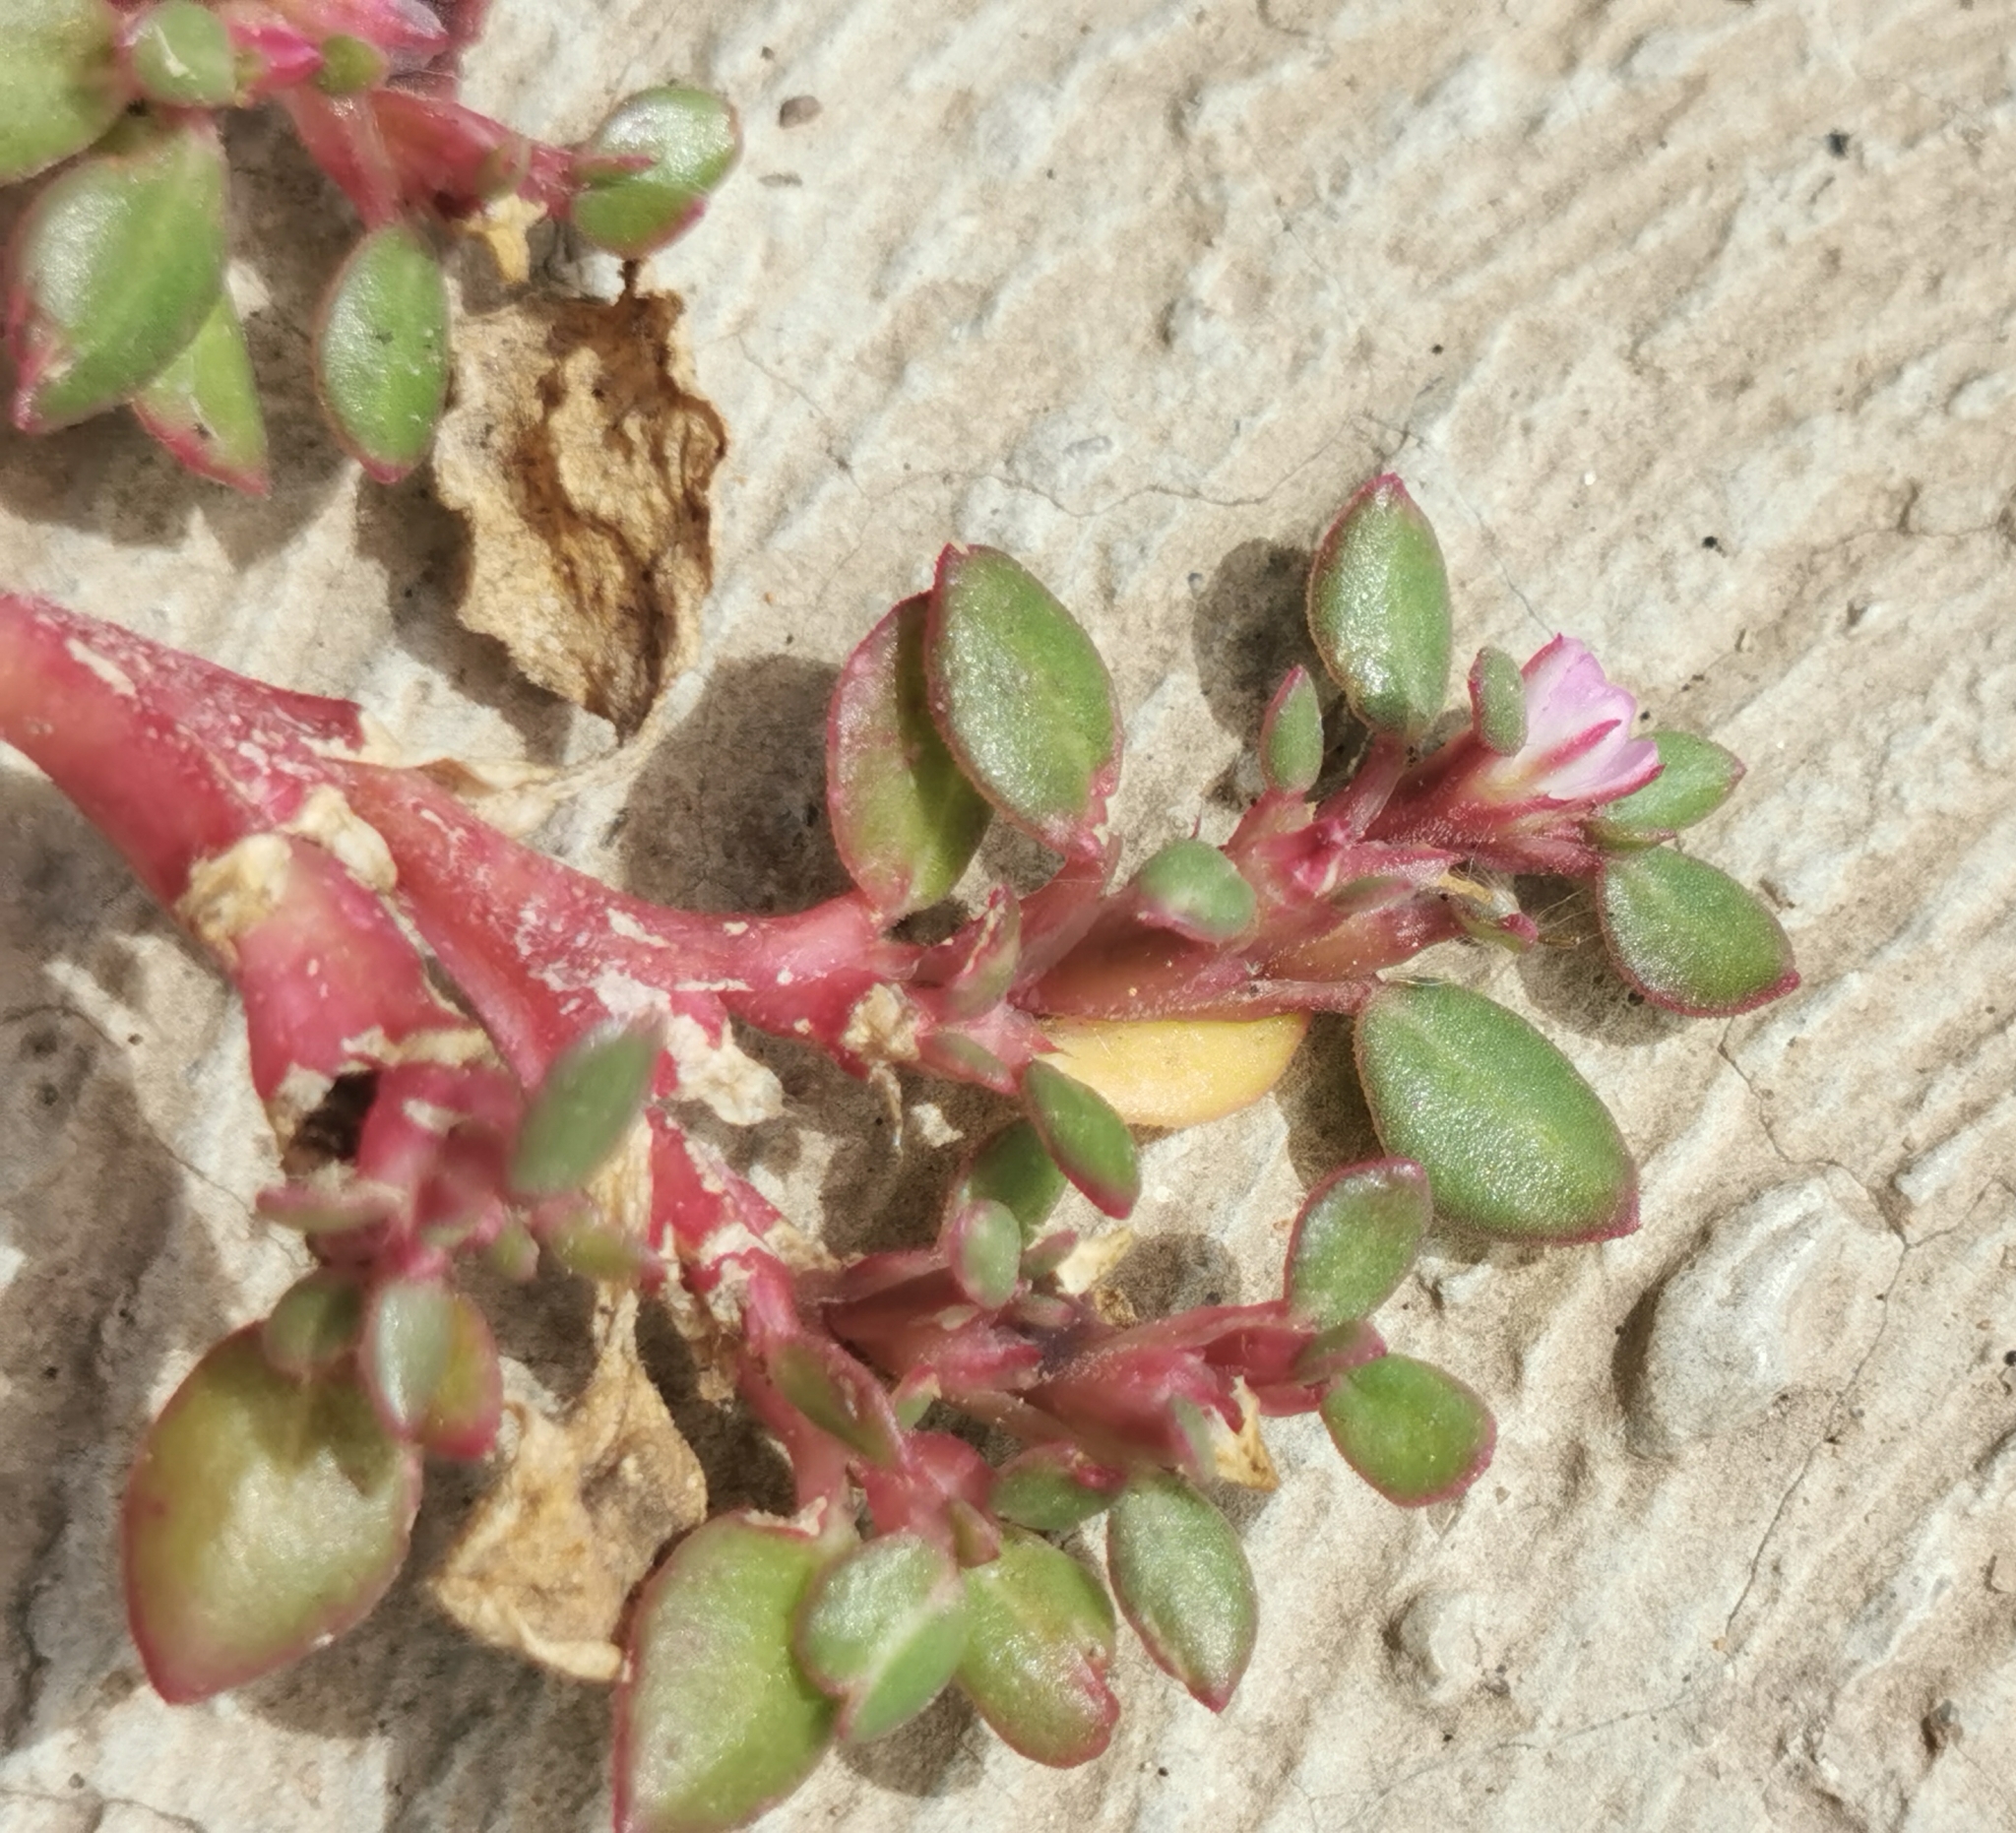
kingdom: Plantae
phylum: Tracheophyta
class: Magnoliopsida
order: Caryophyllales
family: Aizoaceae
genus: Trianthema
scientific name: Trianthema portulacastrum
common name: Desert horsepurslane
